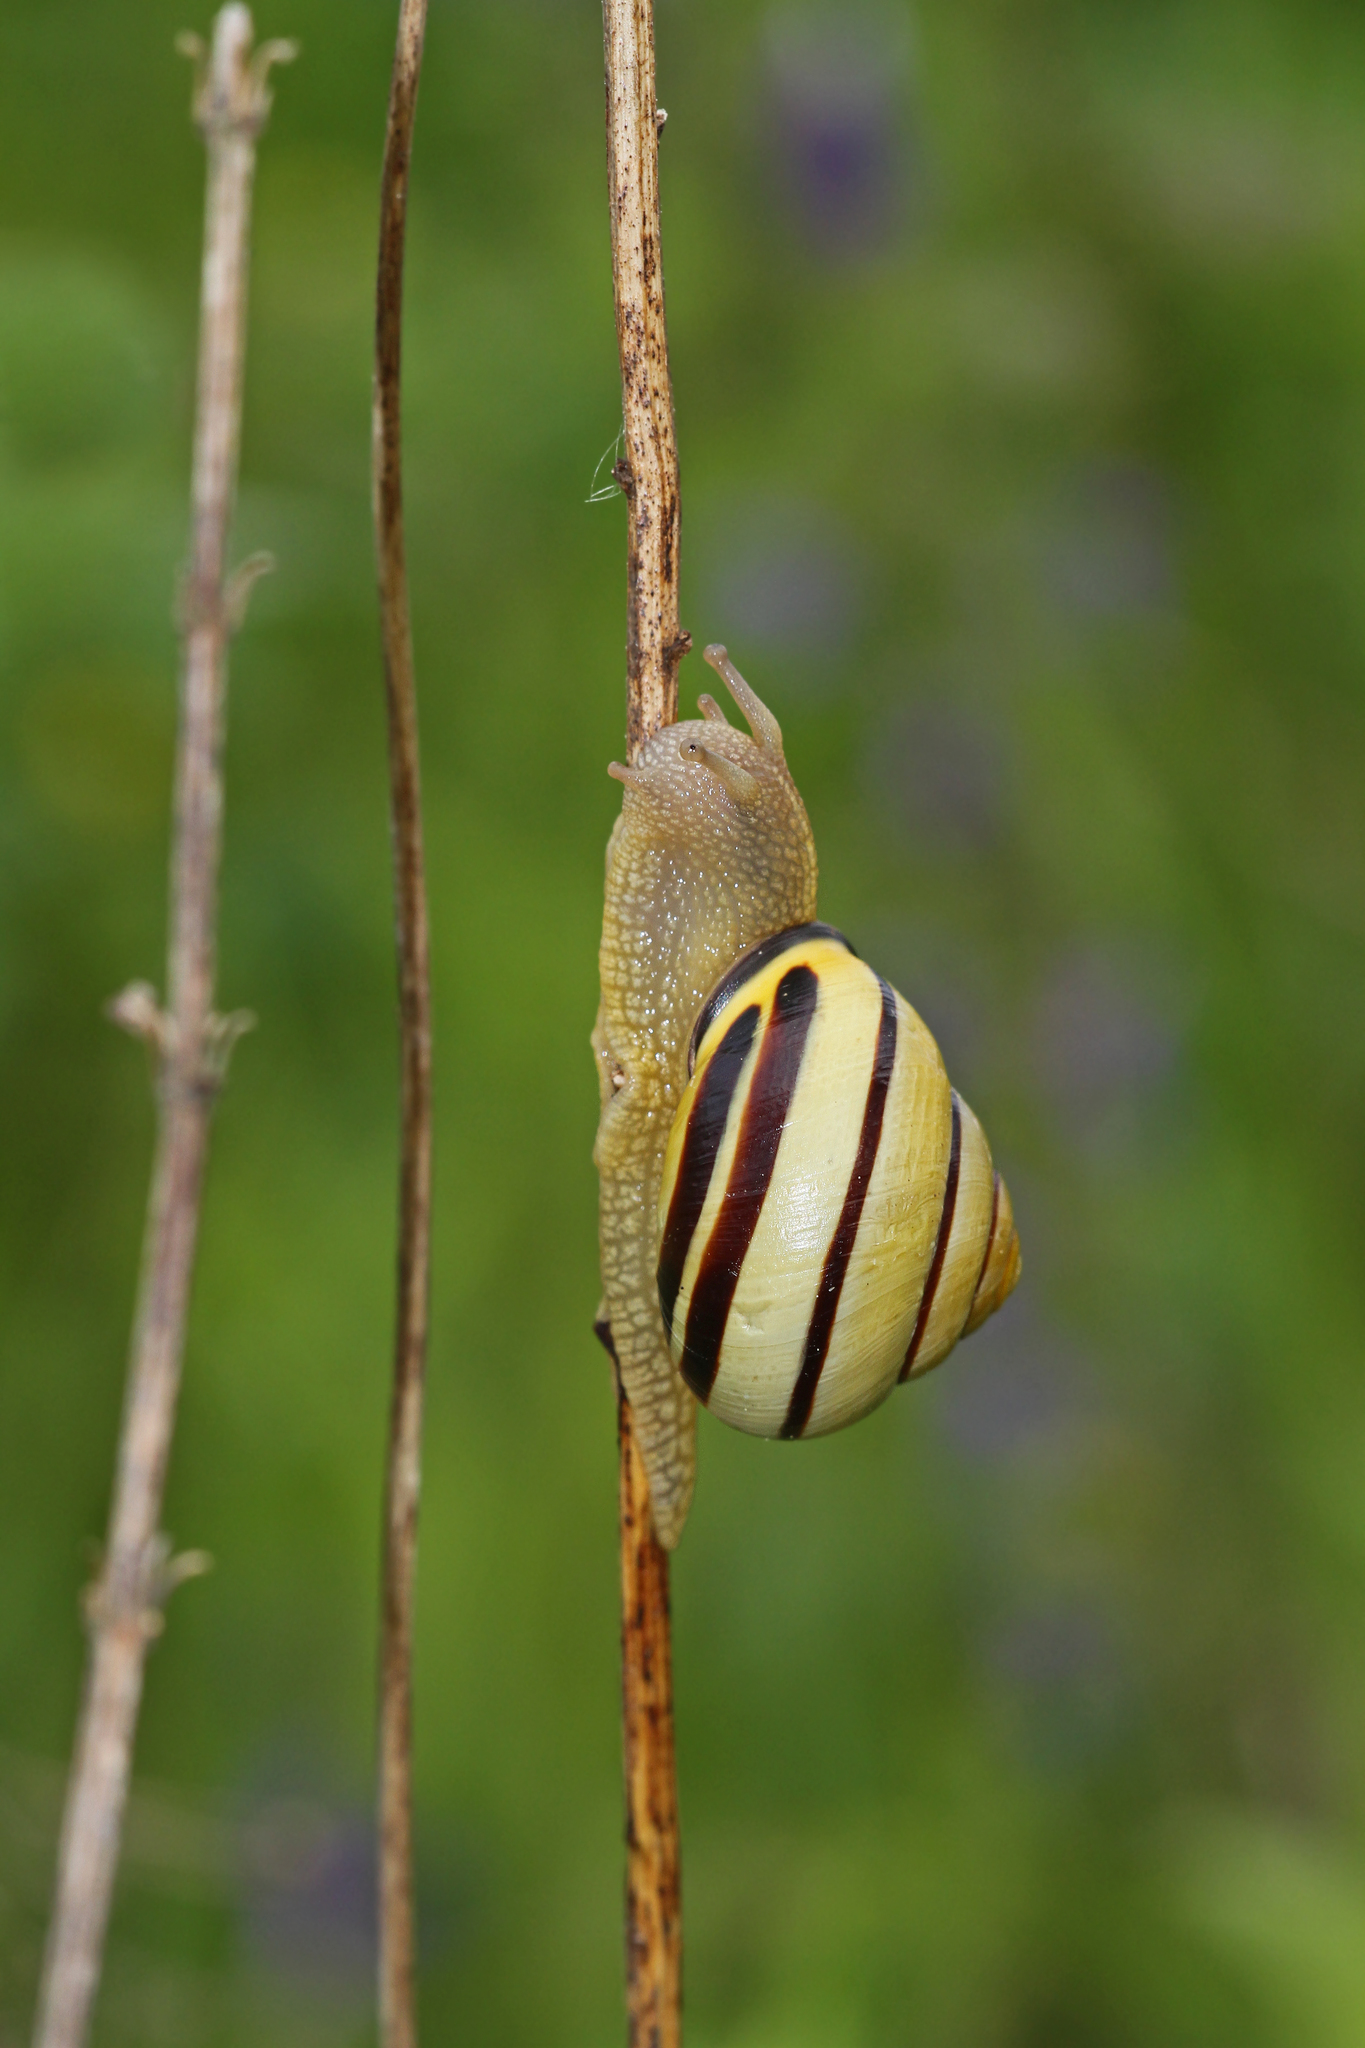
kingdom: Animalia
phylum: Mollusca
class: Gastropoda
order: Stylommatophora
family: Helicidae
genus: Cepaea
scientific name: Cepaea nemoralis
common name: Grovesnail
